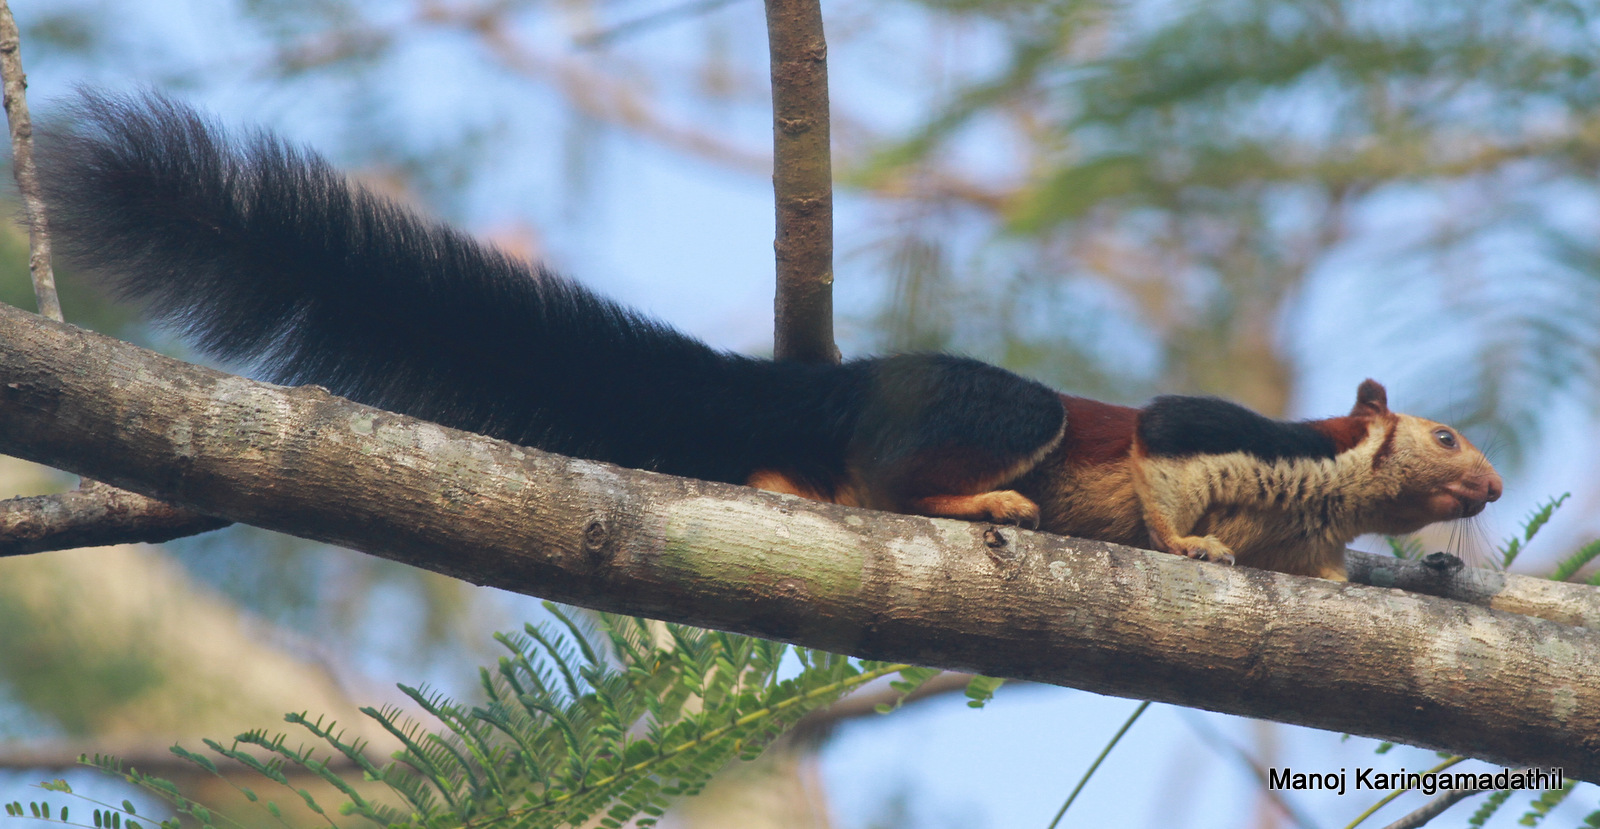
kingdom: Animalia
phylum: Chordata
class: Mammalia
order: Rodentia
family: Sciuridae
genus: Ratufa
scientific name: Ratufa indica
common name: Indian giant squirrel
